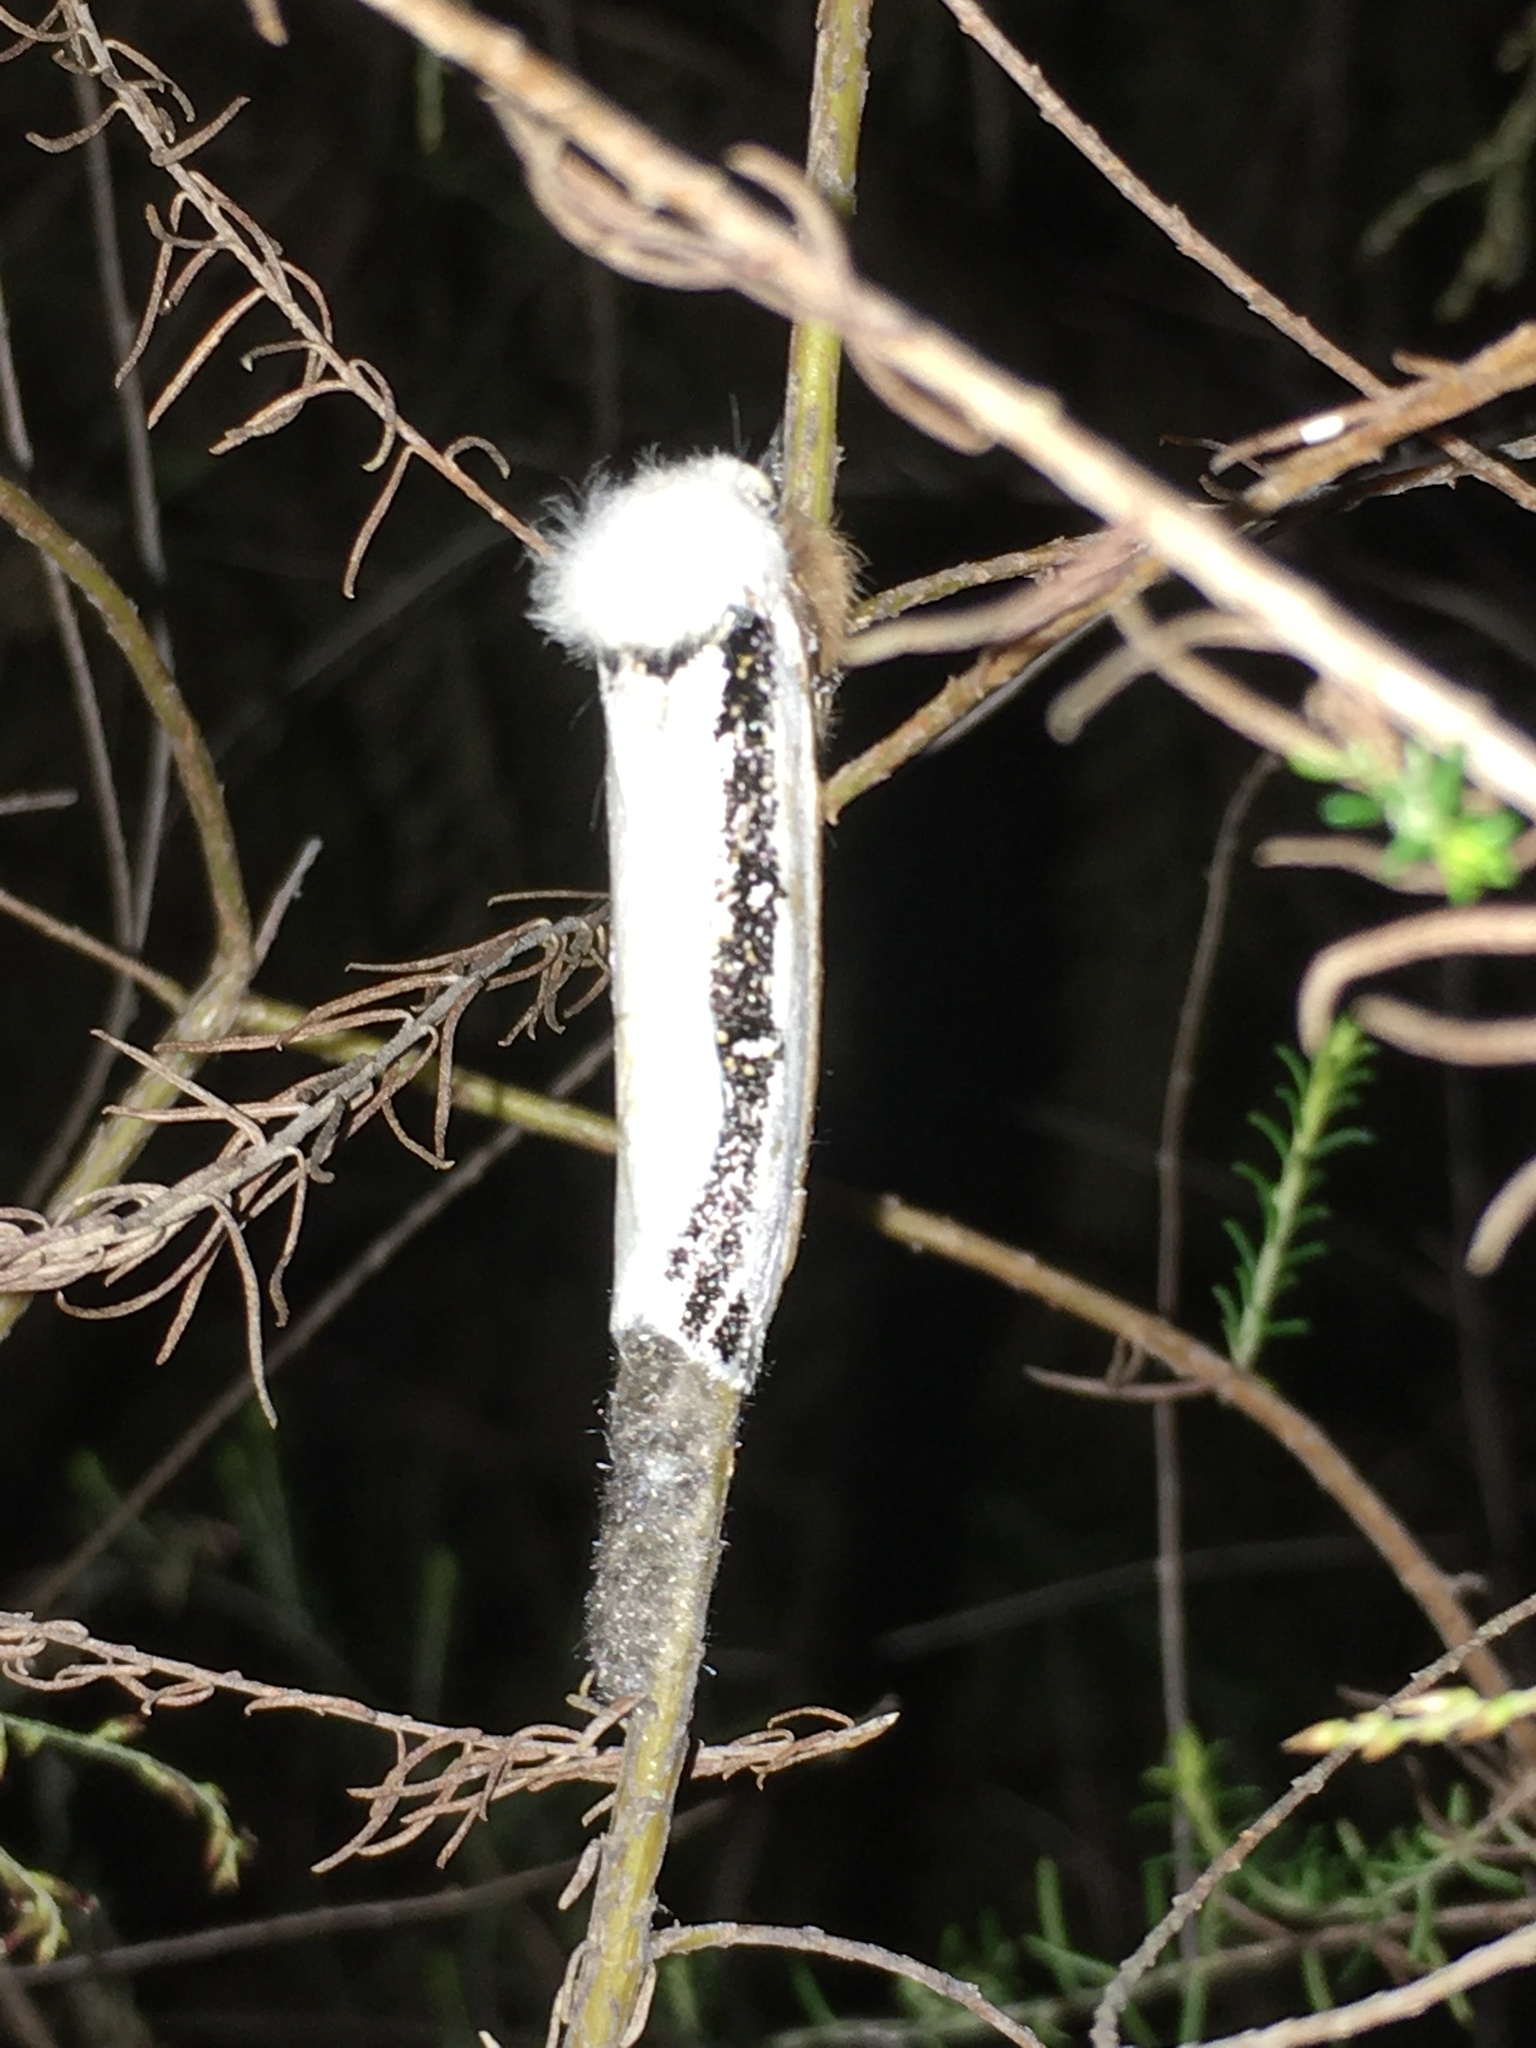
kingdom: Animalia
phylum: Arthropoda
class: Insecta
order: Lepidoptera
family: Oenosandridae
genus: Oenosandra
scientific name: Oenosandra boisduvalii
